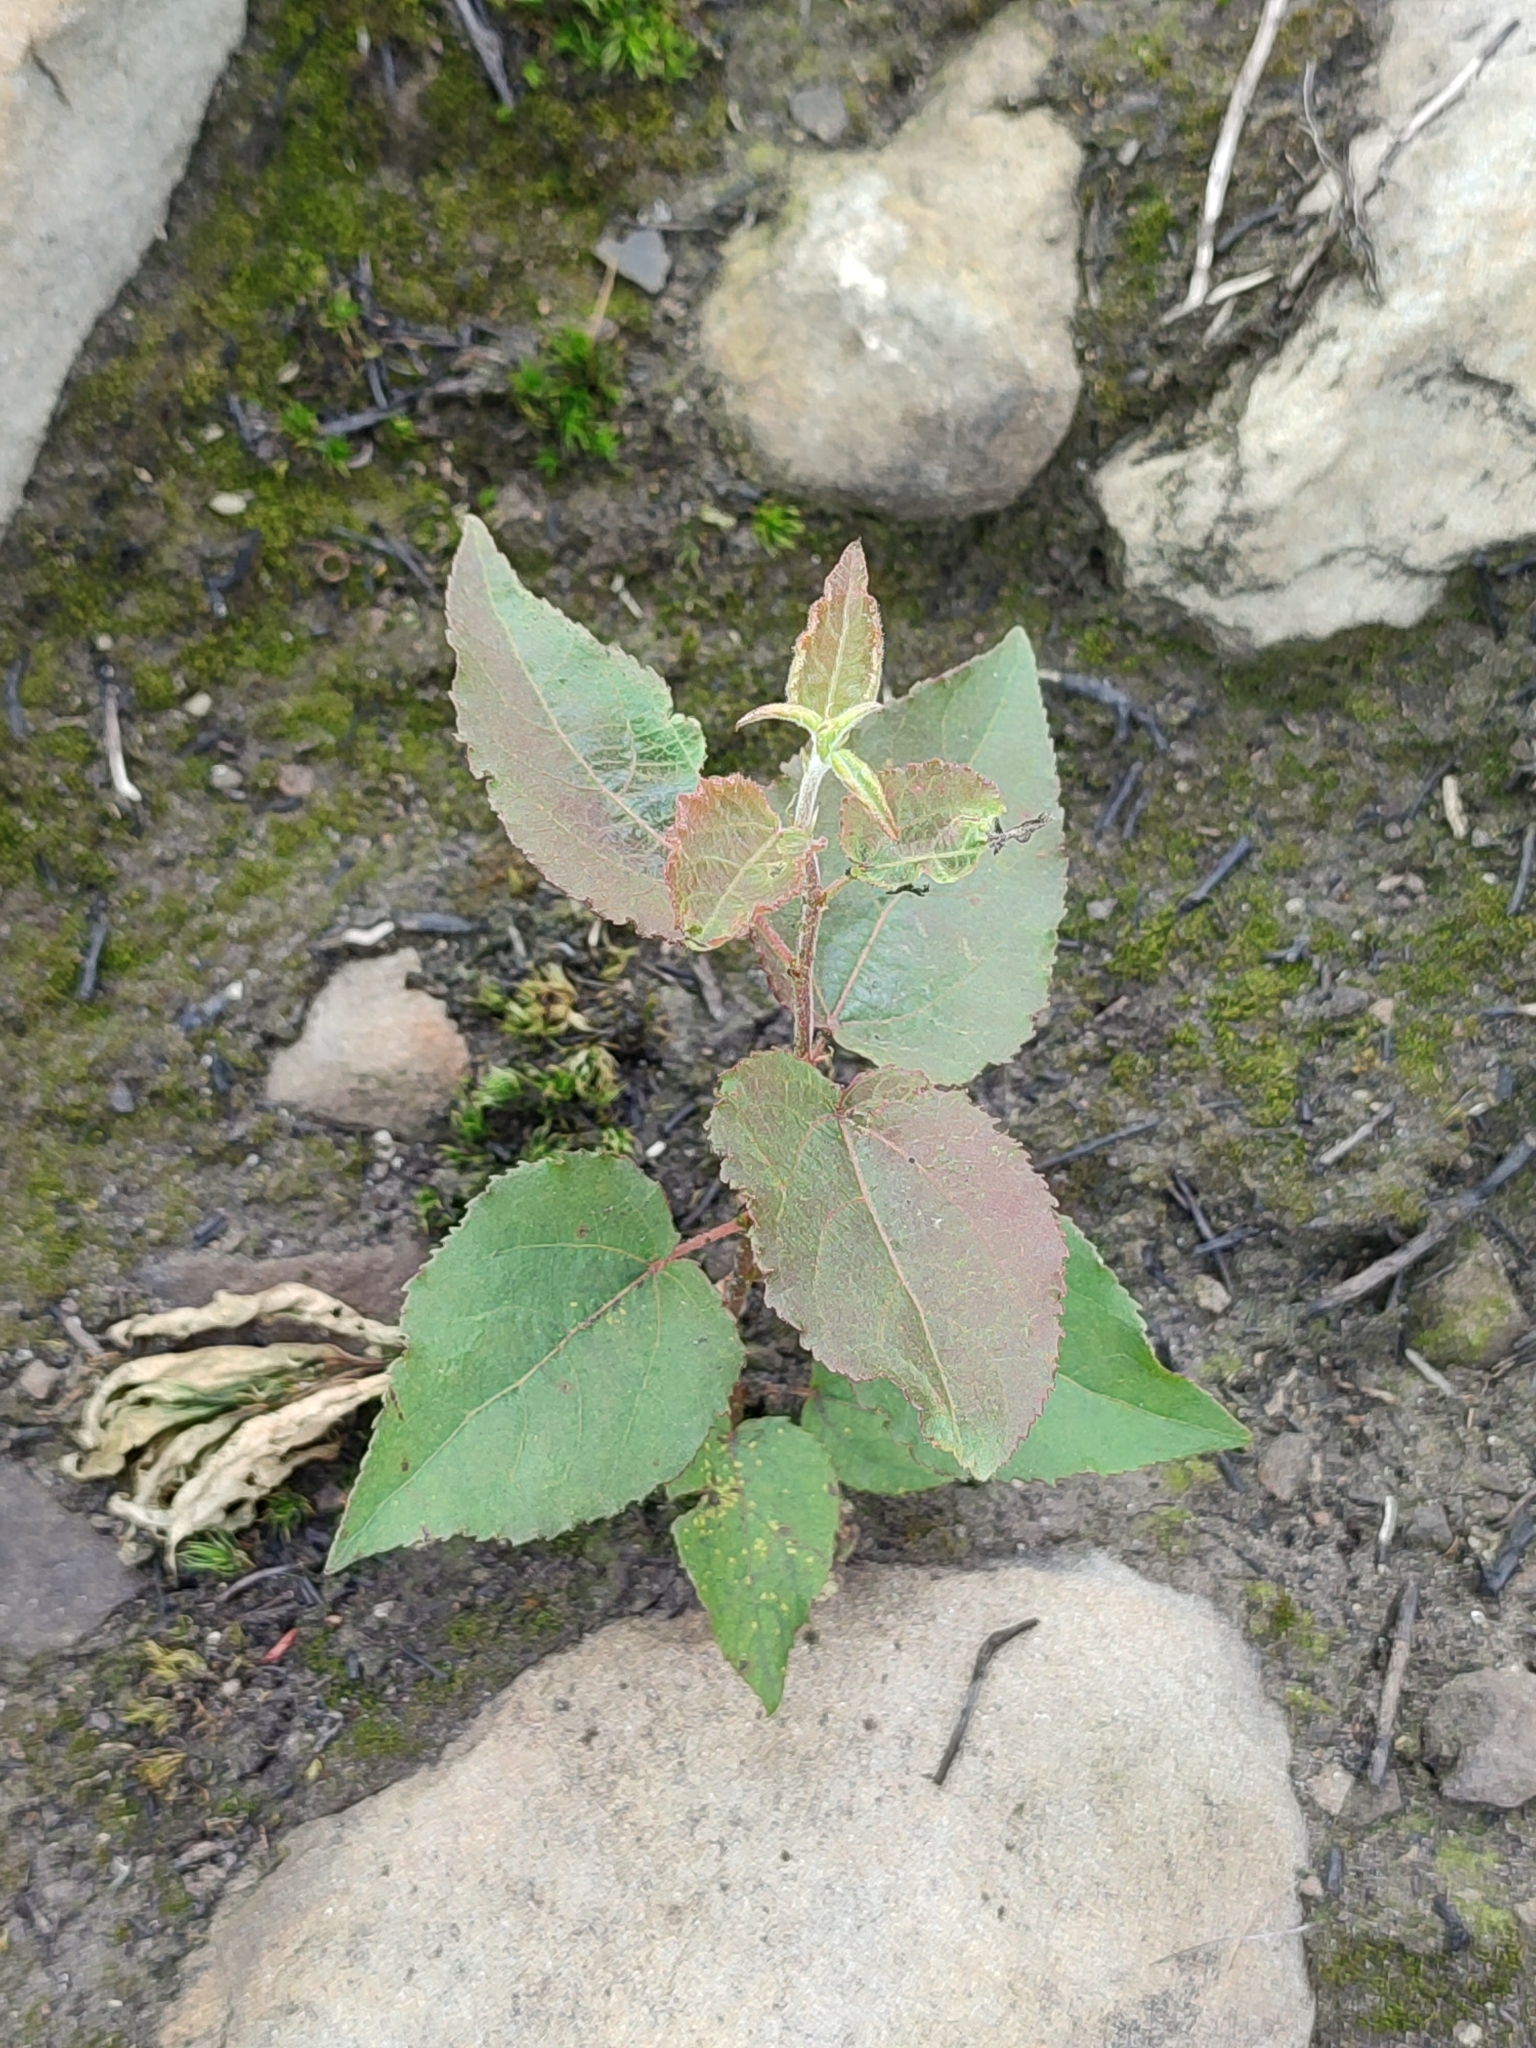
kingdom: Plantae
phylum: Tracheophyta
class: Magnoliopsida
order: Malpighiales
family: Salicaceae
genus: Populus
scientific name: Populus tremula
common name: European aspen
